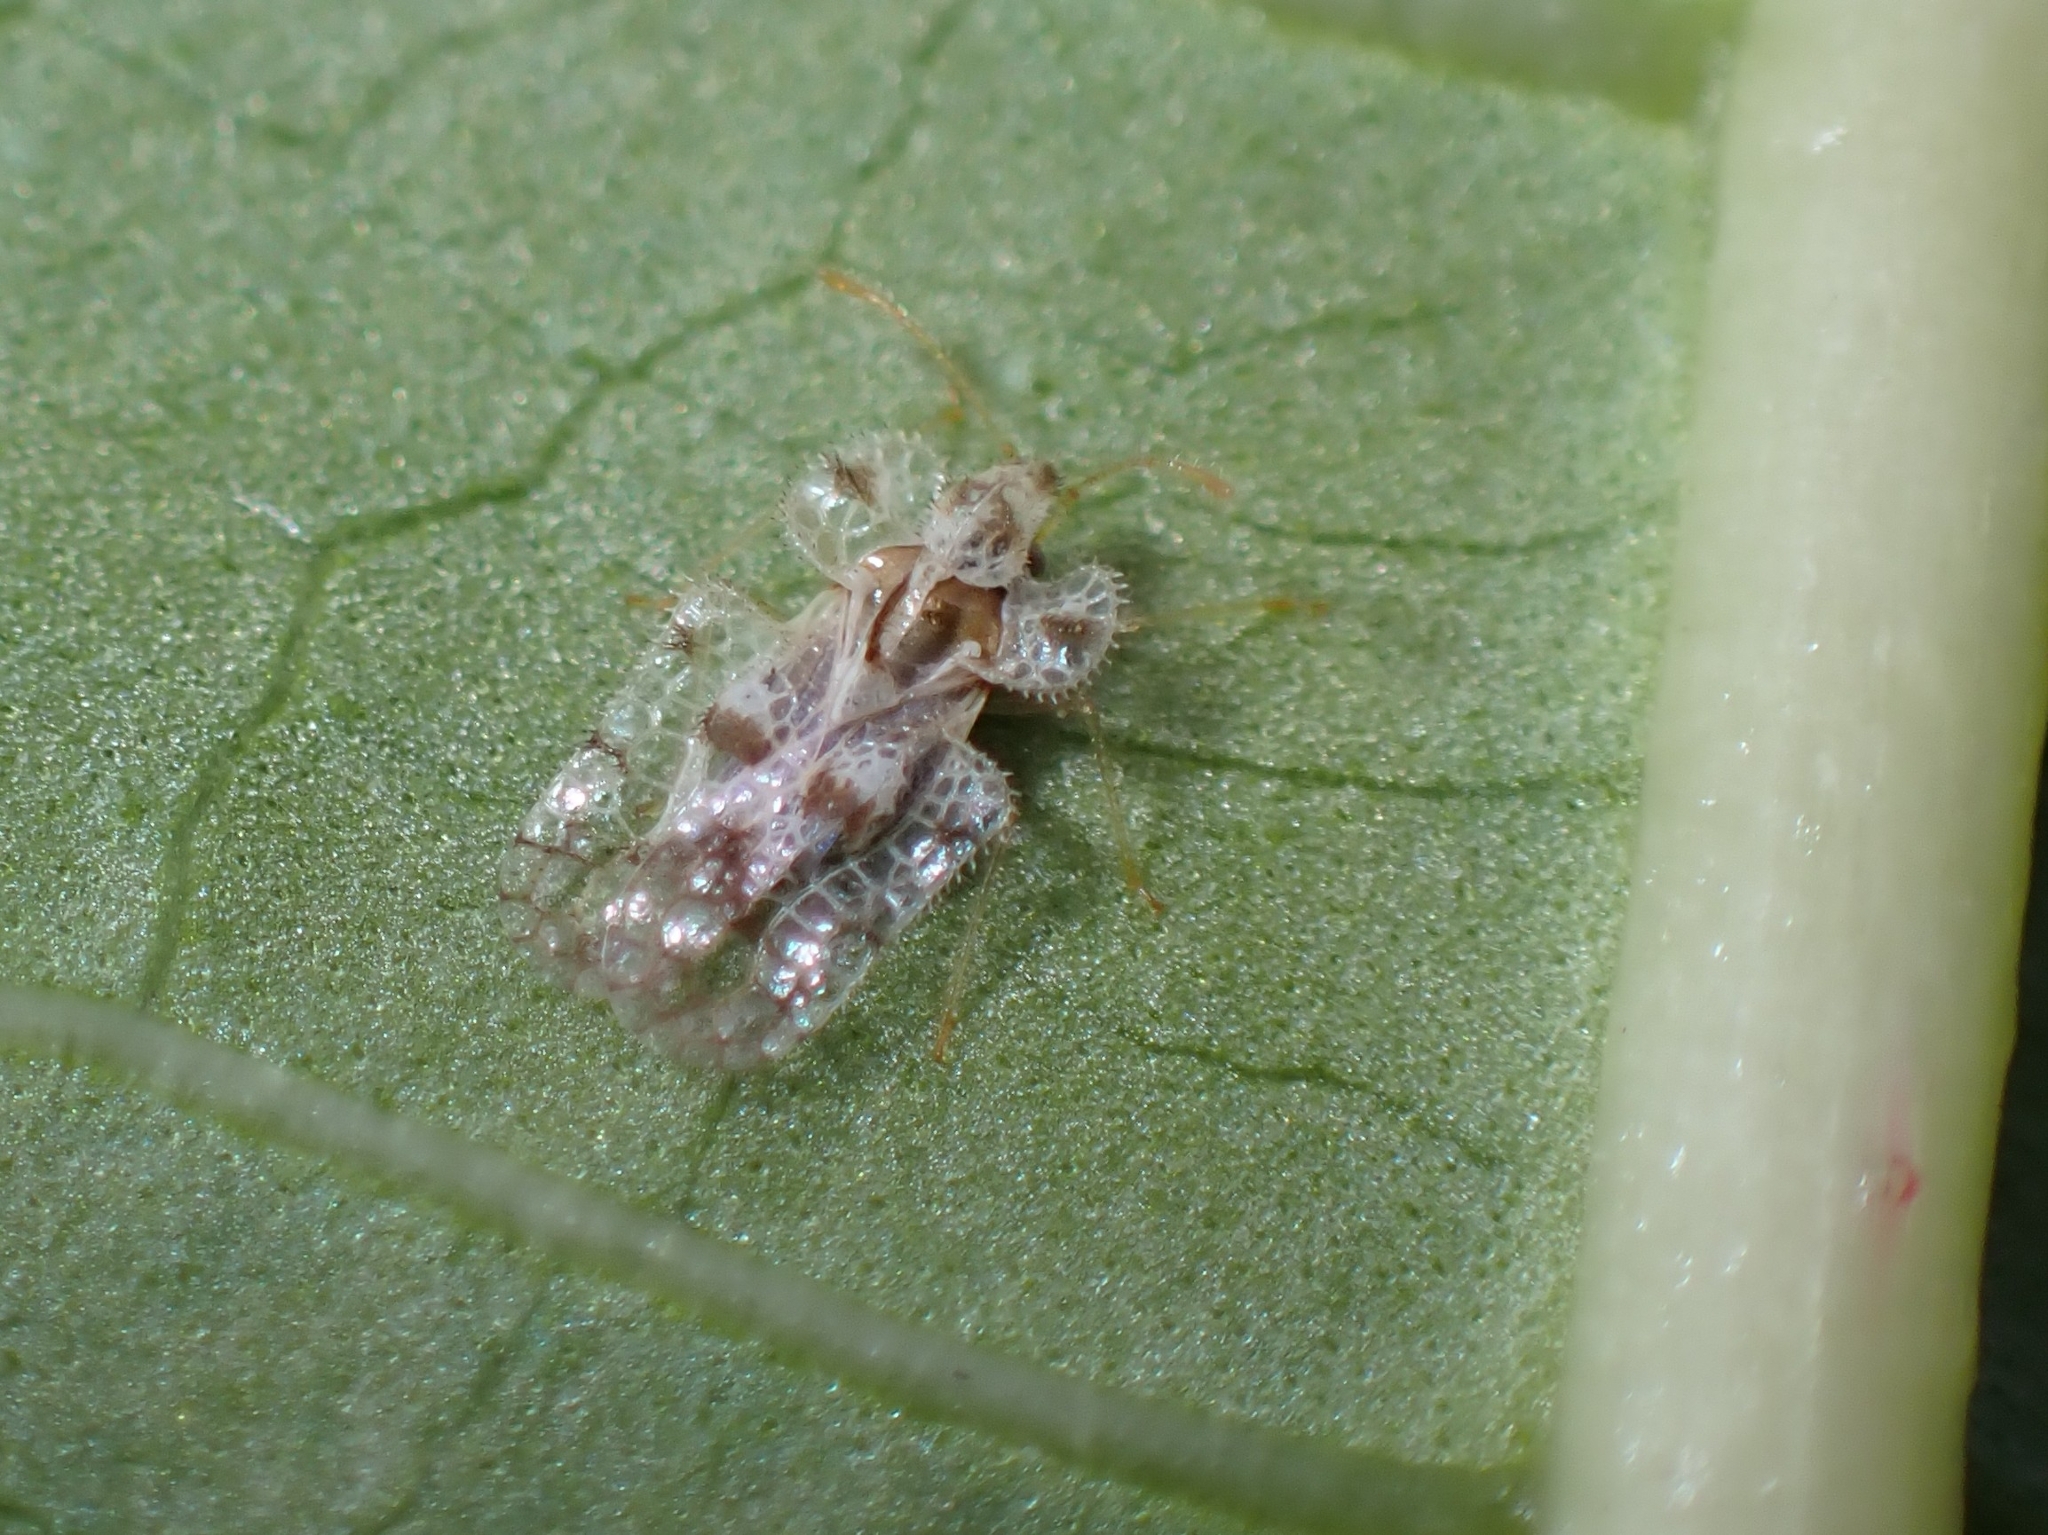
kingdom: Animalia
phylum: Arthropoda
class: Insecta
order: Hemiptera
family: Tingidae
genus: Corythucha
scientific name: Corythucha gossypii
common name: Cotton lace bug
